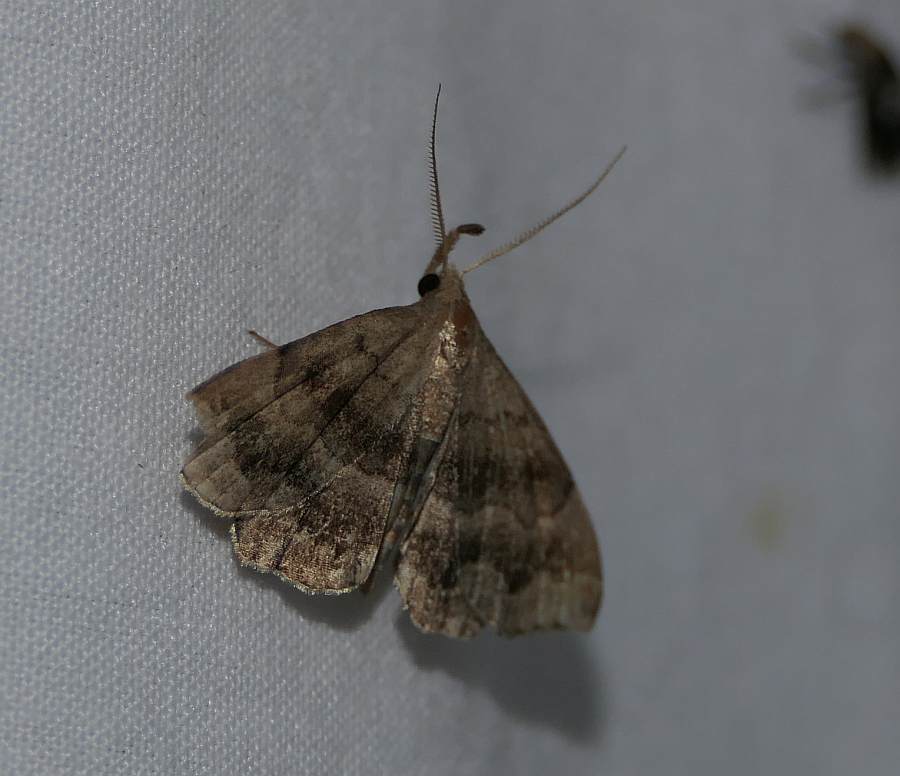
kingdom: Animalia
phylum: Arthropoda
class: Insecta
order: Lepidoptera
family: Erebidae
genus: Phalaenostola
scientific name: Phalaenostola larentioides
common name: Black-banded owlet
